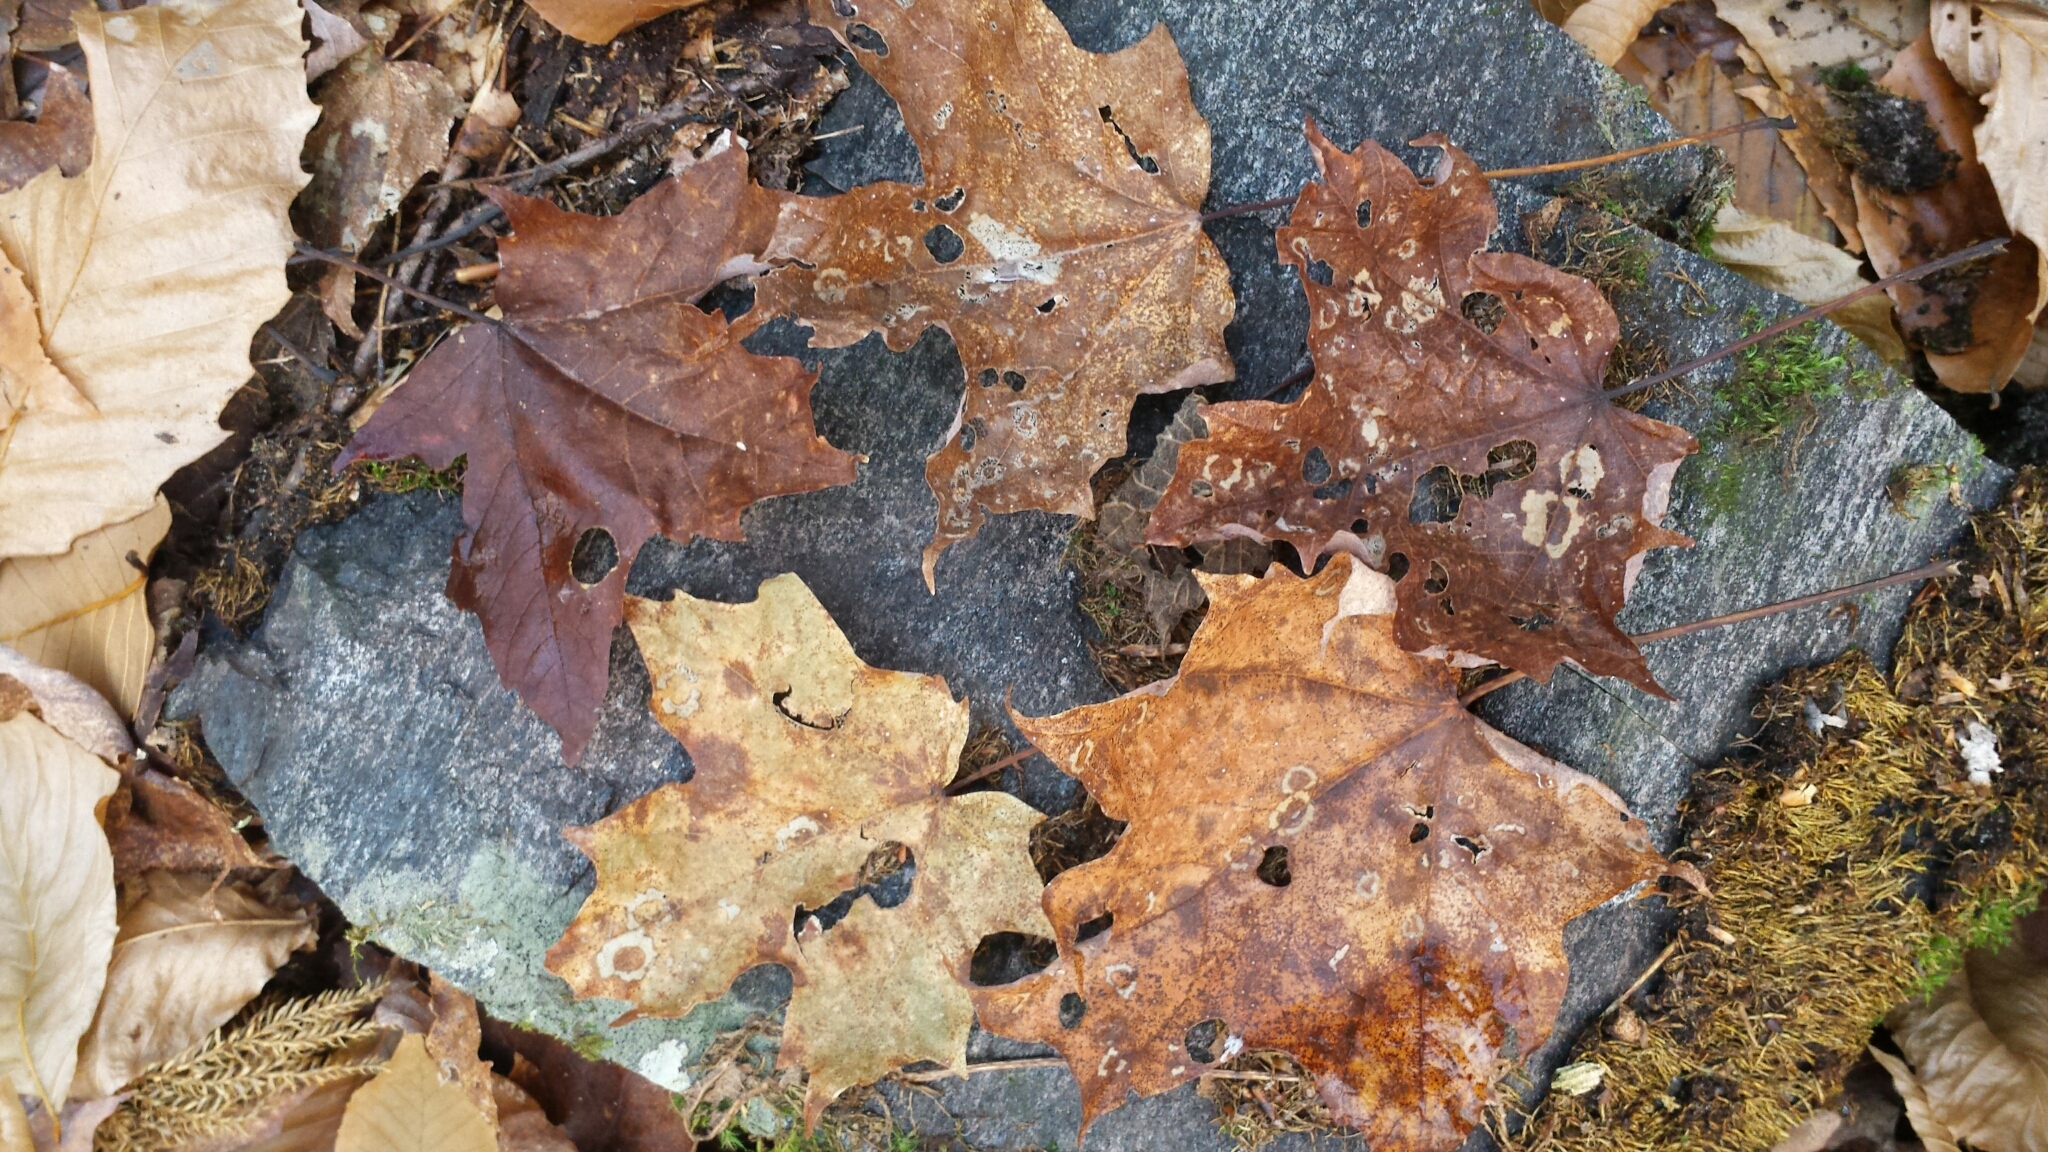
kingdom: Animalia
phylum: Arthropoda
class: Insecta
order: Lepidoptera
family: Incurvariidae
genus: Paraclemensia
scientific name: Paraclemensia acerifoliella
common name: Maple leafcutter
